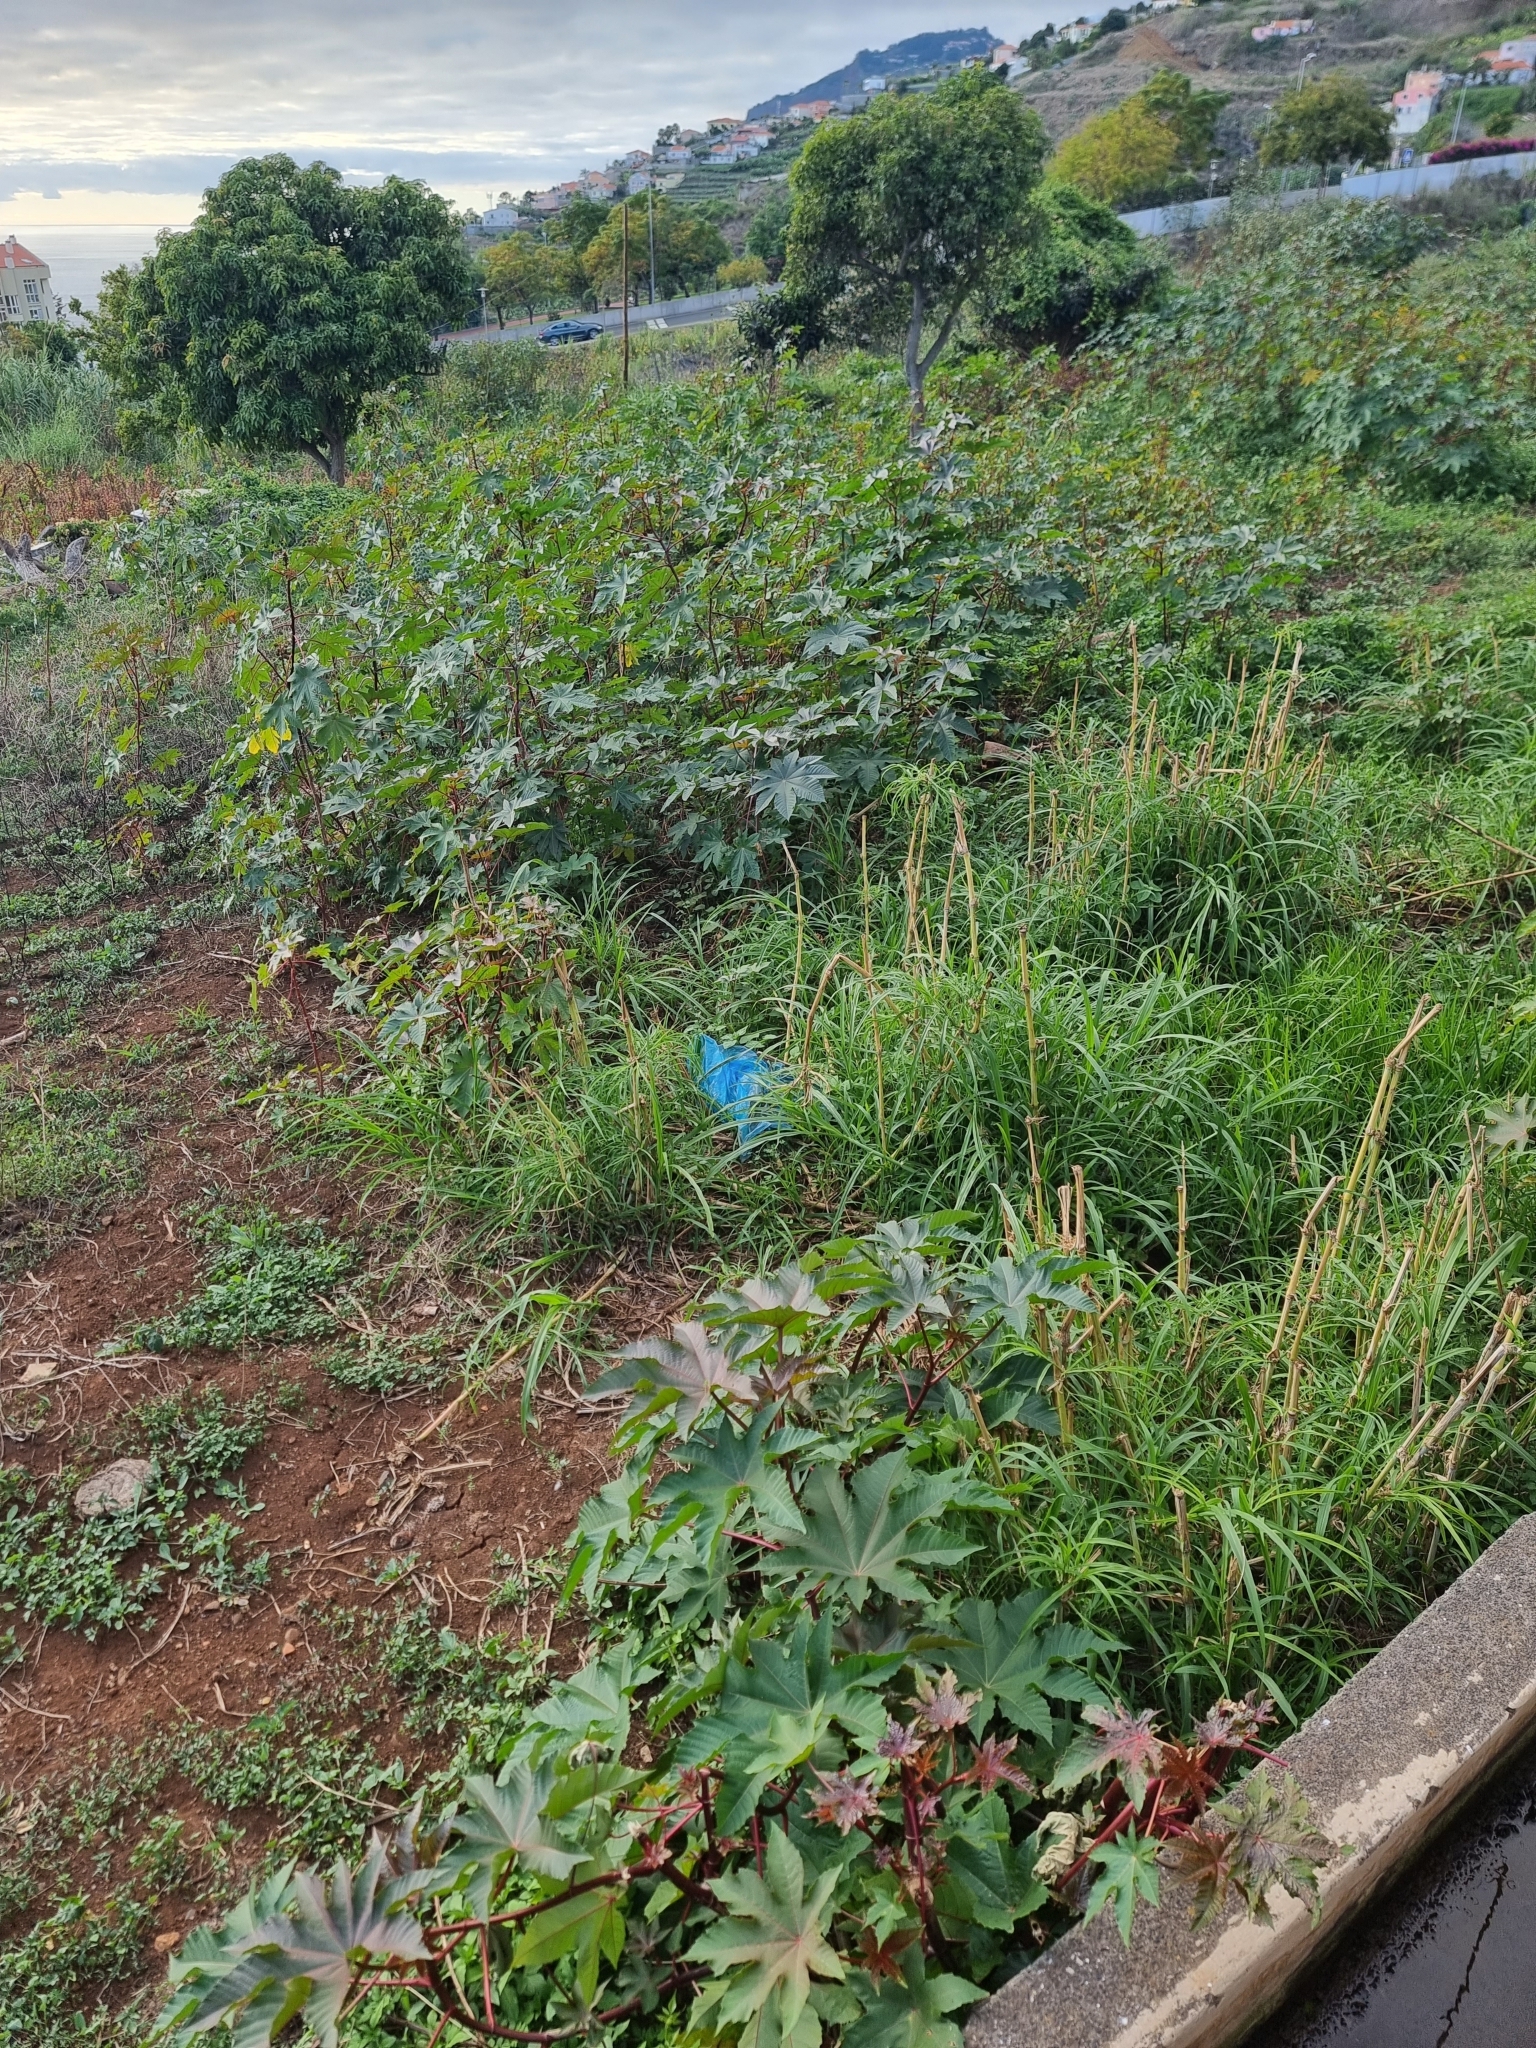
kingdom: Plantae
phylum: Tracheophyta
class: Magnoliopsida
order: Malpighiales
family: Euphorbiaceae
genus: Ricinus
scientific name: Ricinus communis
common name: Castor-oil-plant
